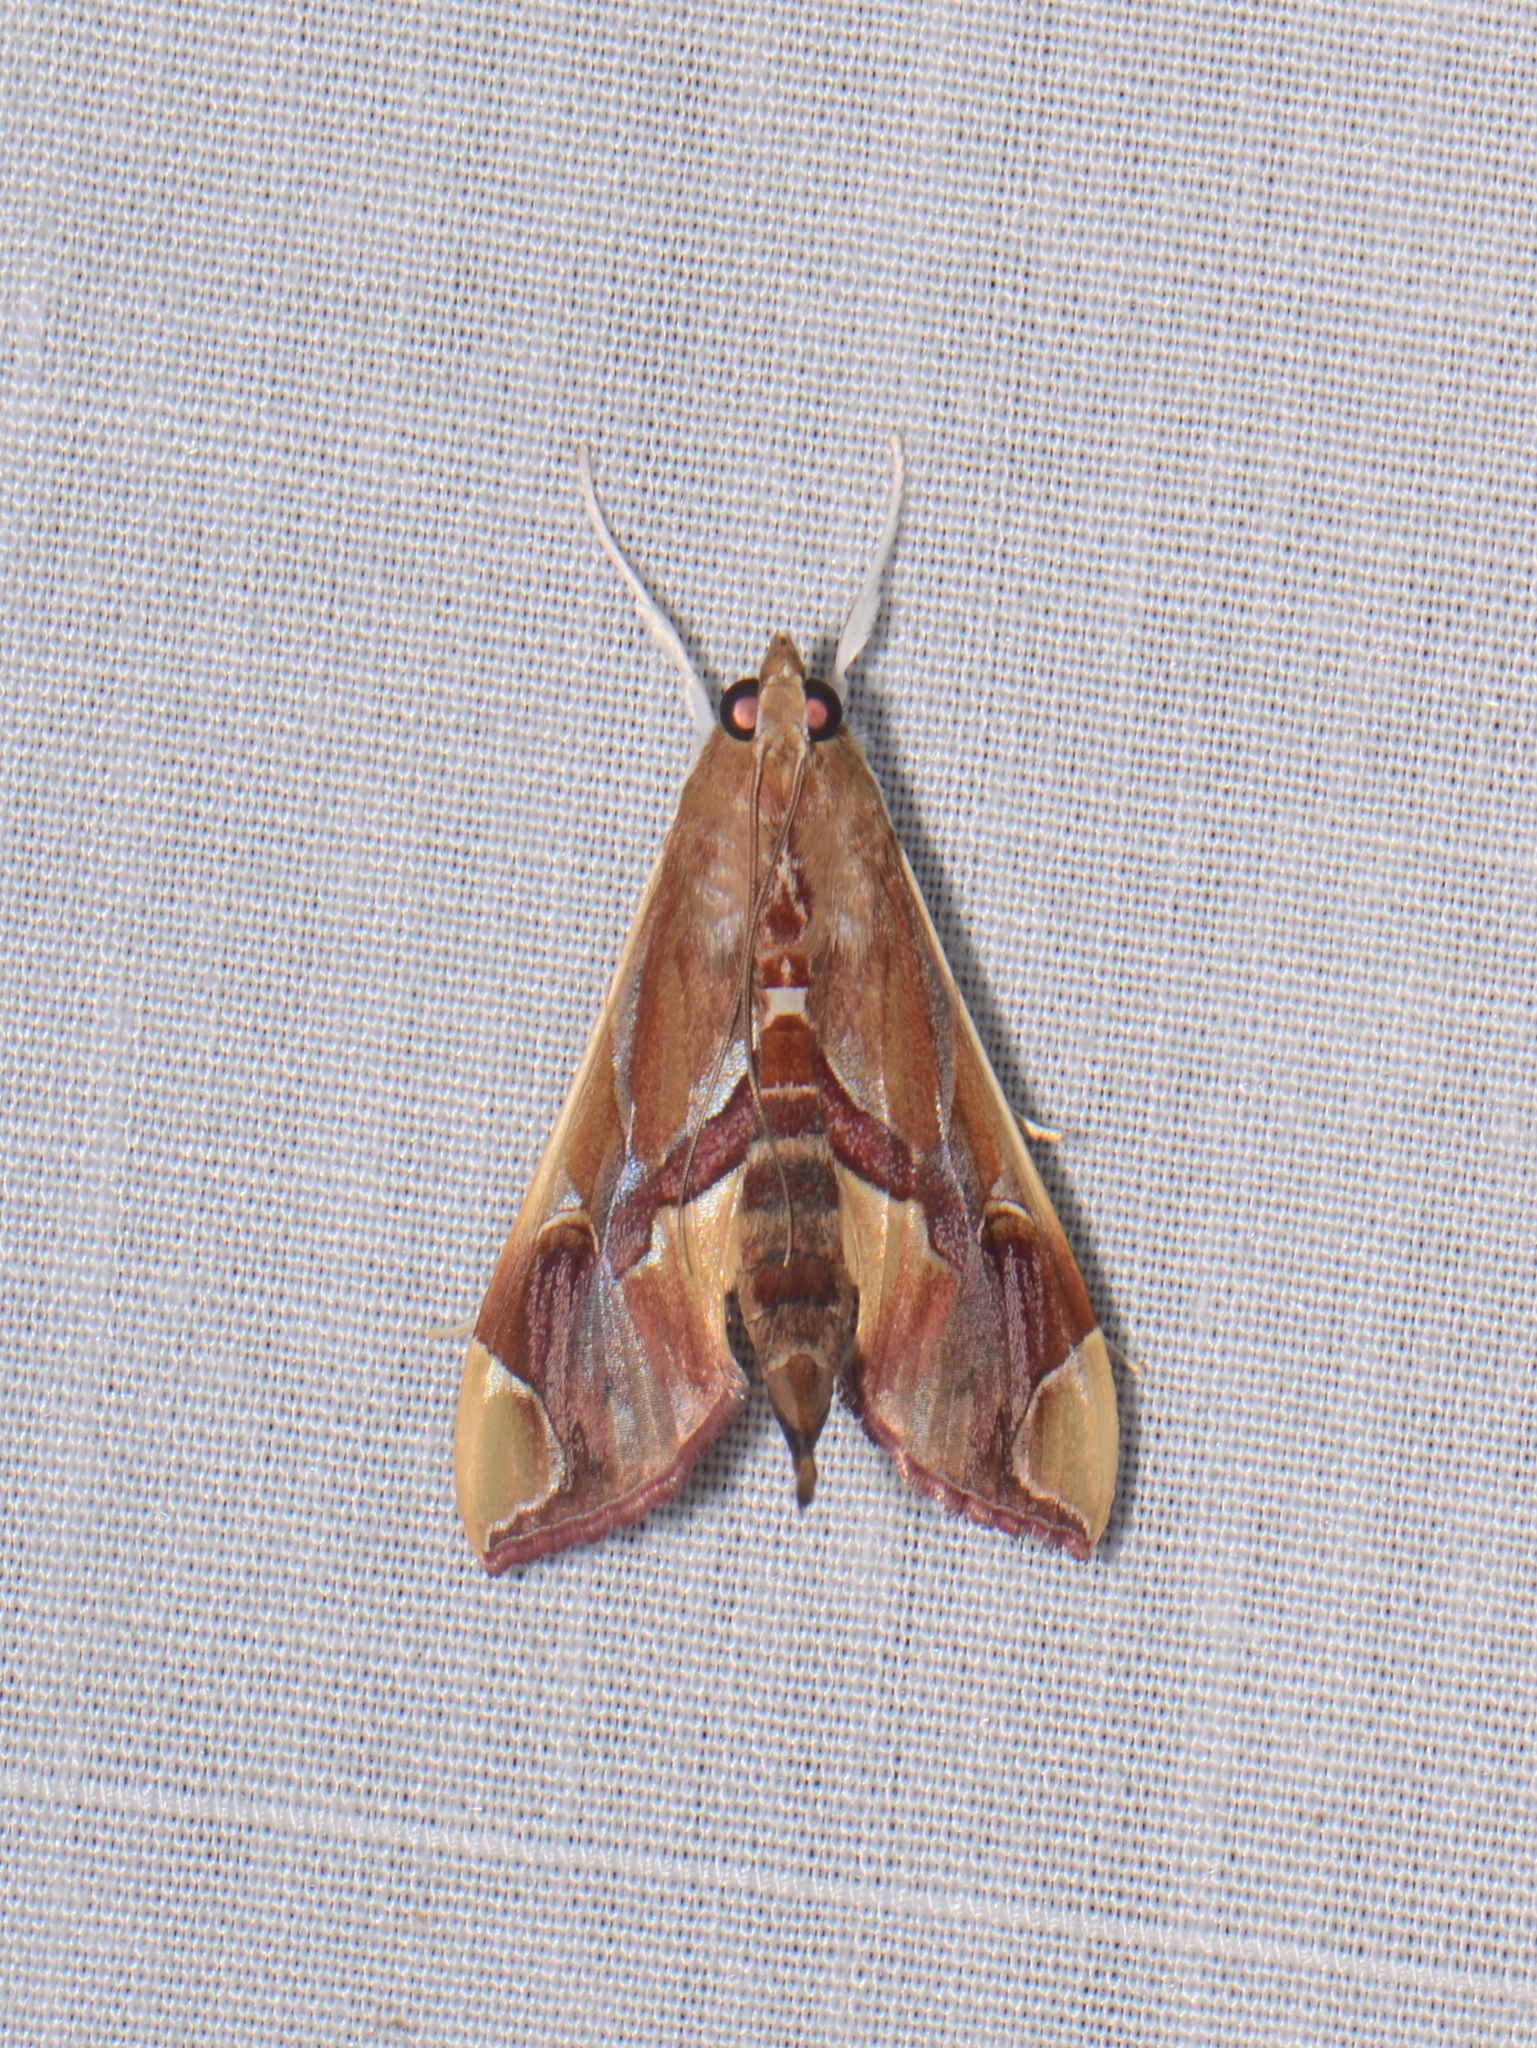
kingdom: Animalia
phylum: Arthropoda
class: Insecta
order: Lepidoptera
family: Crambidae
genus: Agathodes
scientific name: Agathodes modicalis
